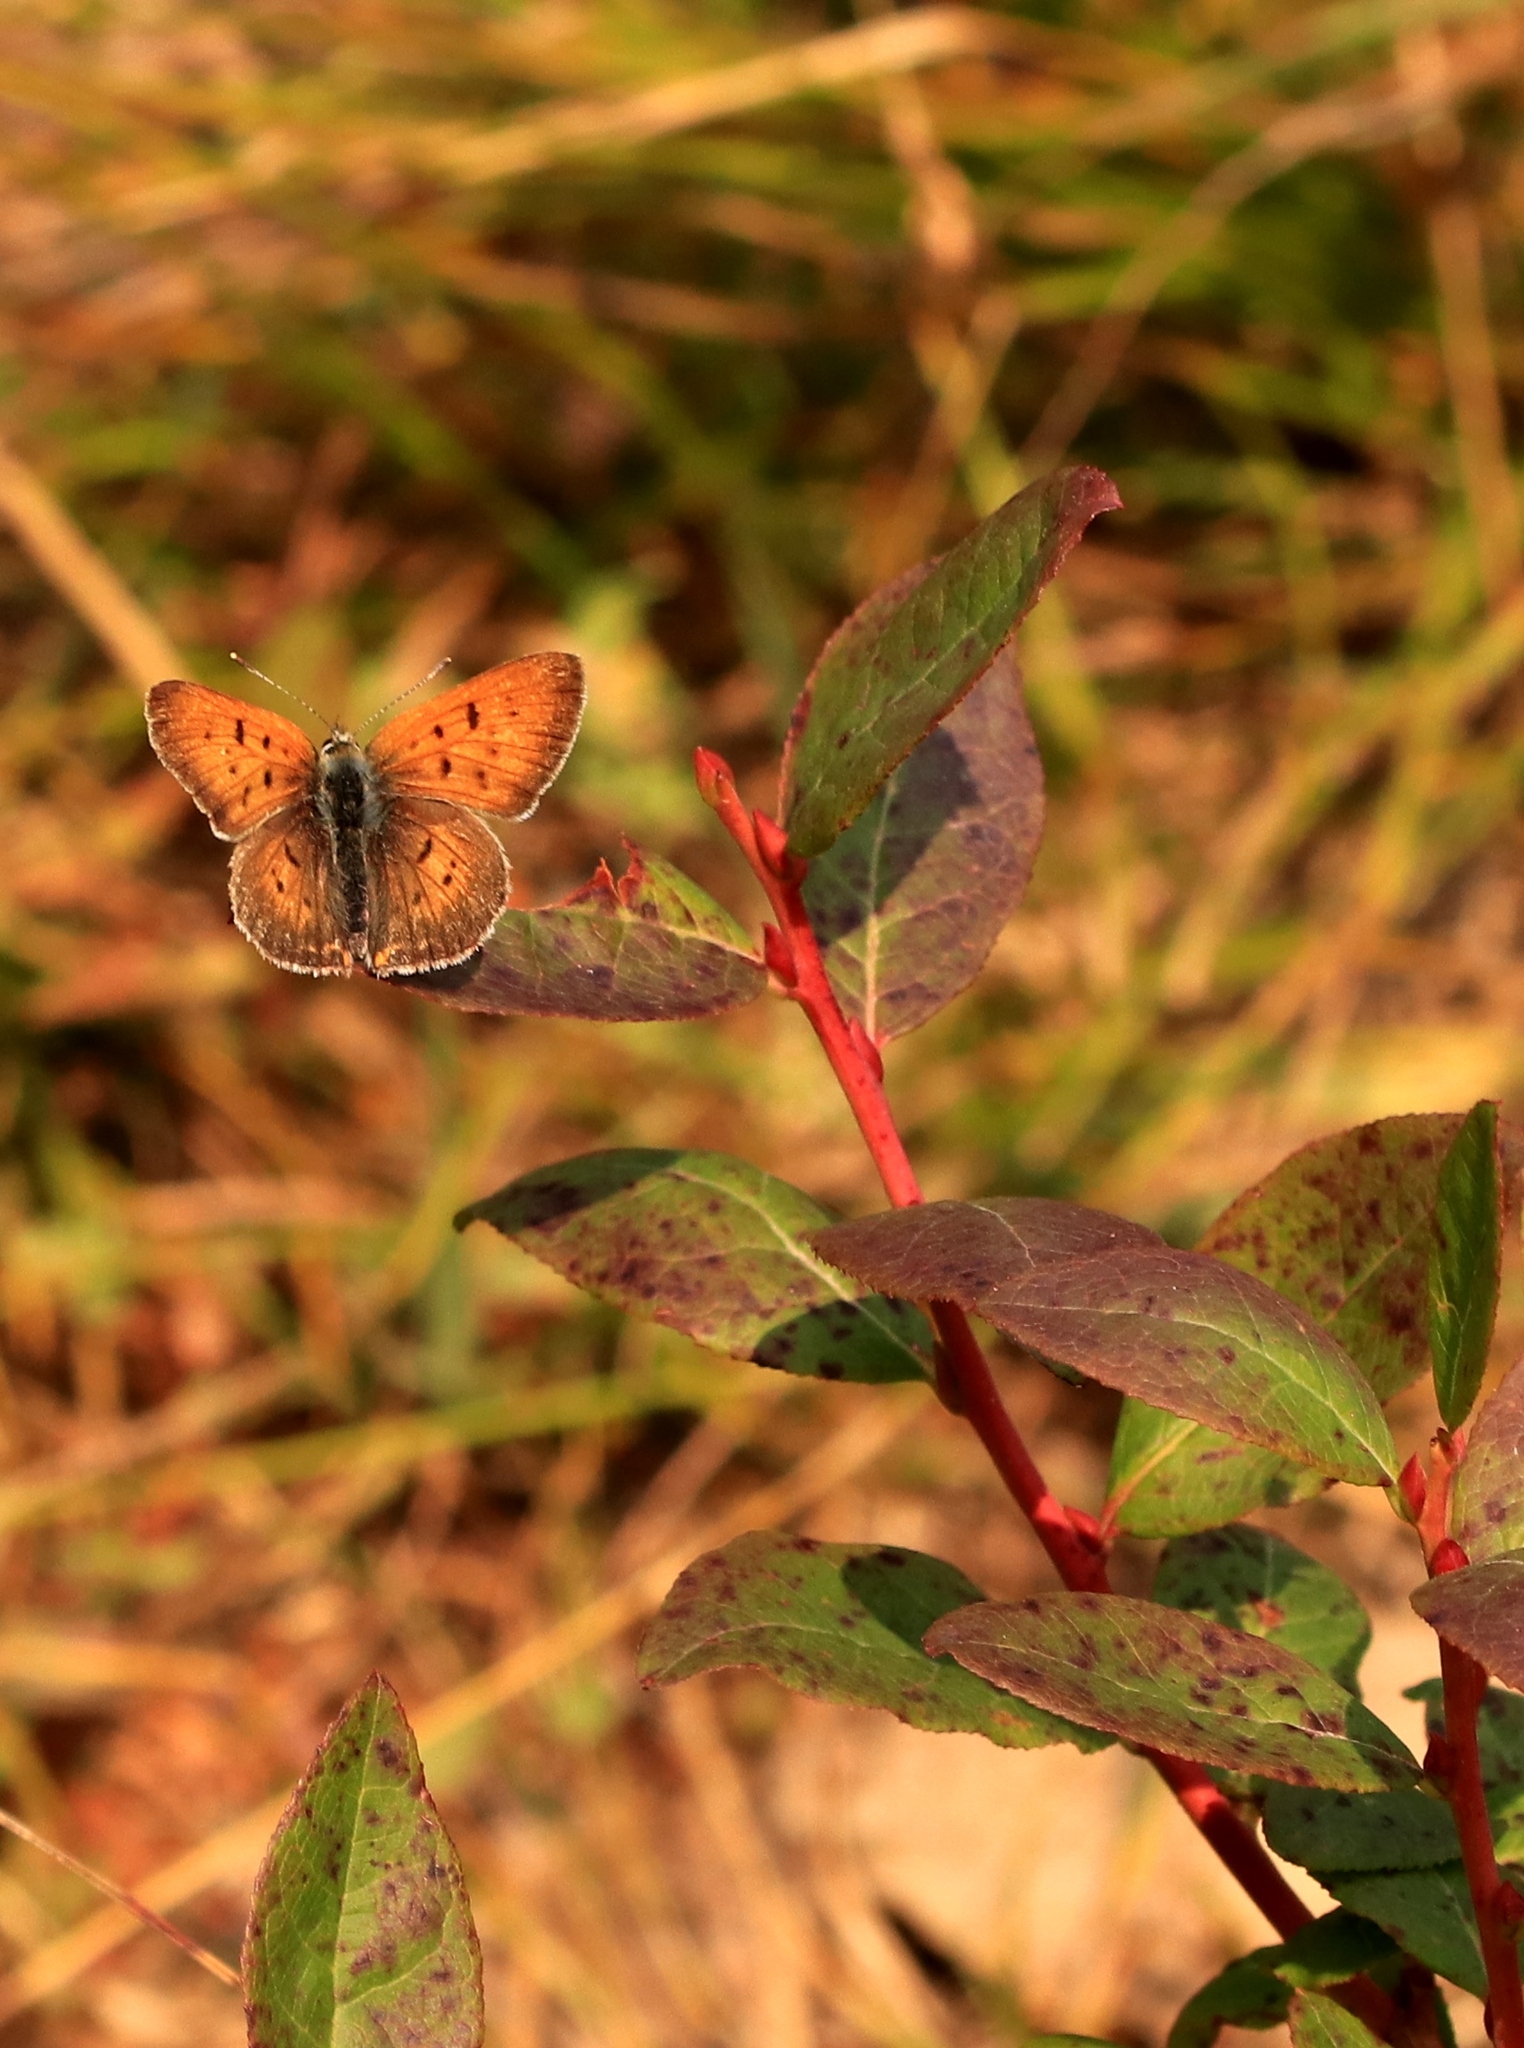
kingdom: Animalia
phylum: Arthropoda
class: Insecta
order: Lepidoptera
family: Lycaenidae
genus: Tharsalea
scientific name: Tharsalea helloides
